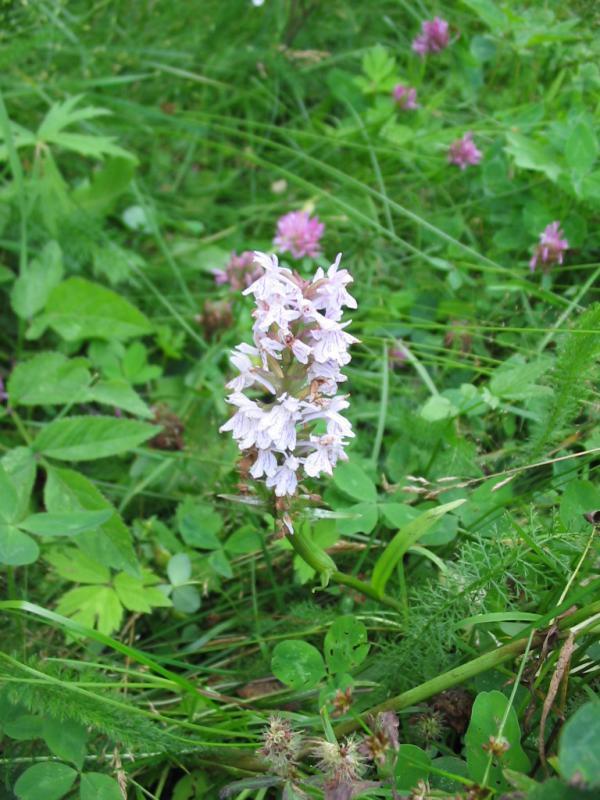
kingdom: Plantae
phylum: Tracheophyta
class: Liliopsida
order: Asparagales
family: Orchidaceae
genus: Dactylorhiza
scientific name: Dactylorhiza maculata
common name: Heath spotted-orchid
